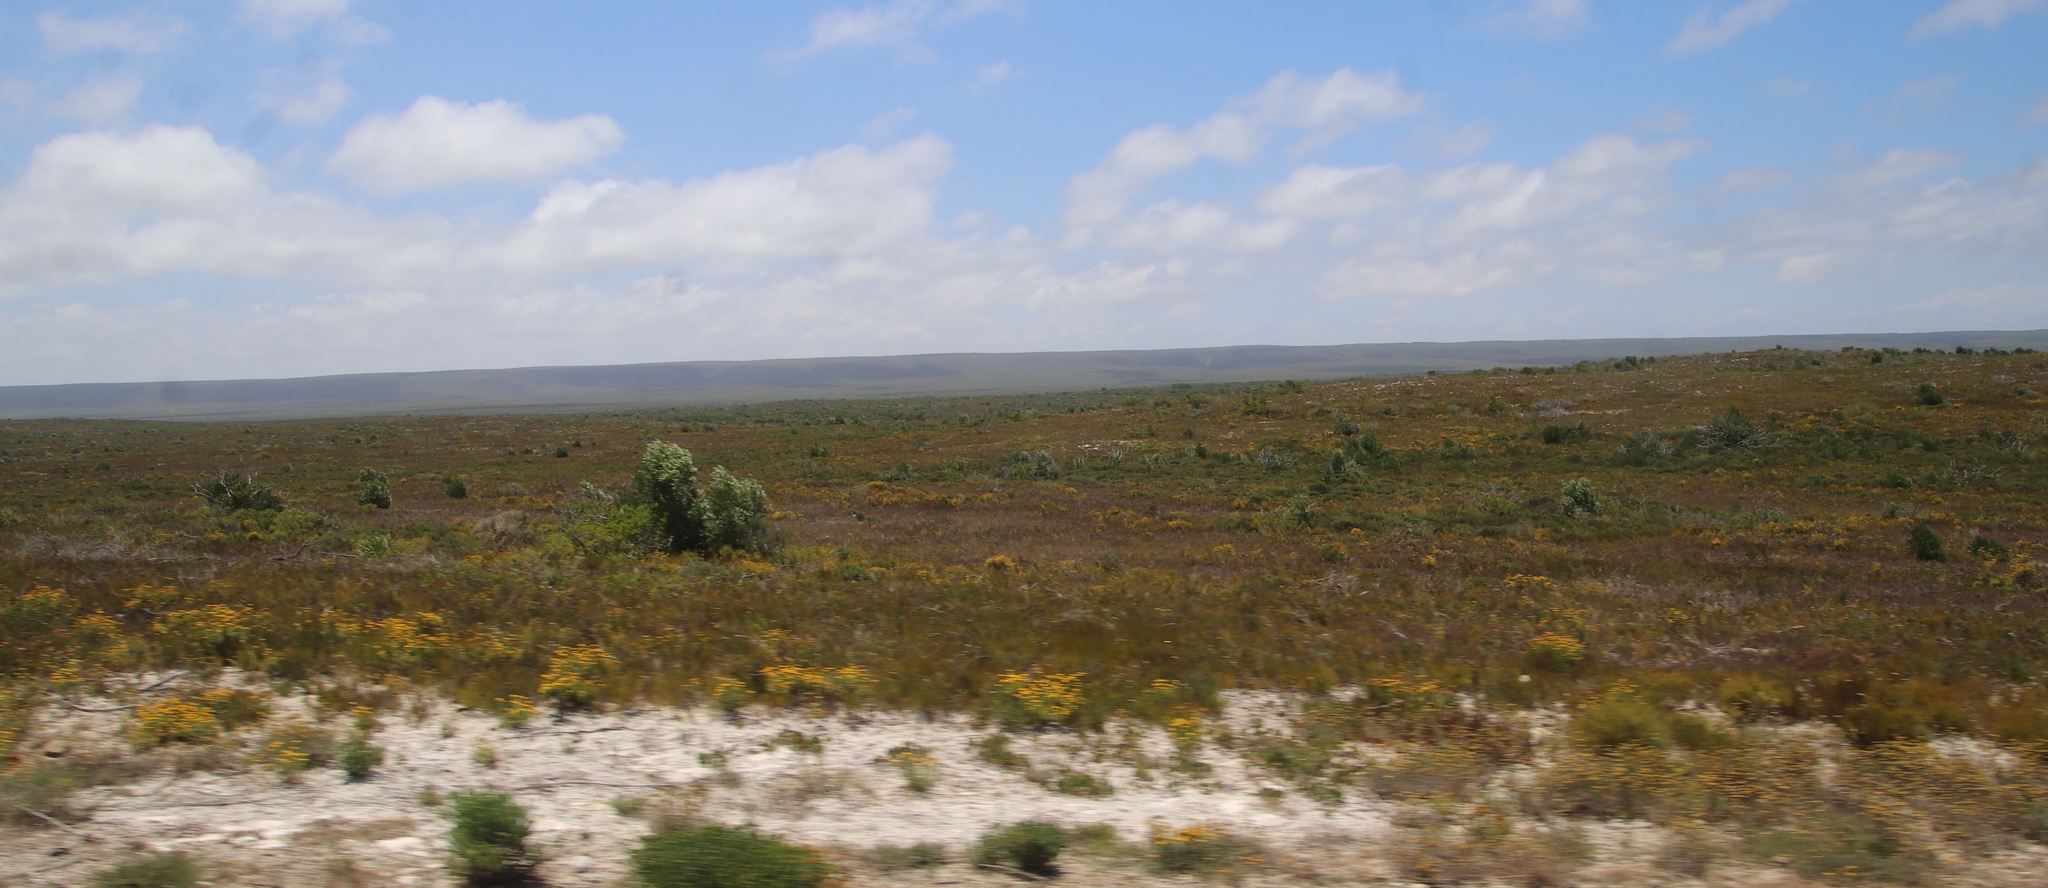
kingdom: Plantae
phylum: Tracheophyta
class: Magnoliopsida
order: Fabales
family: Fabaceae
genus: Acacia
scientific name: Acacia cyclops
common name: Coastal wattle
